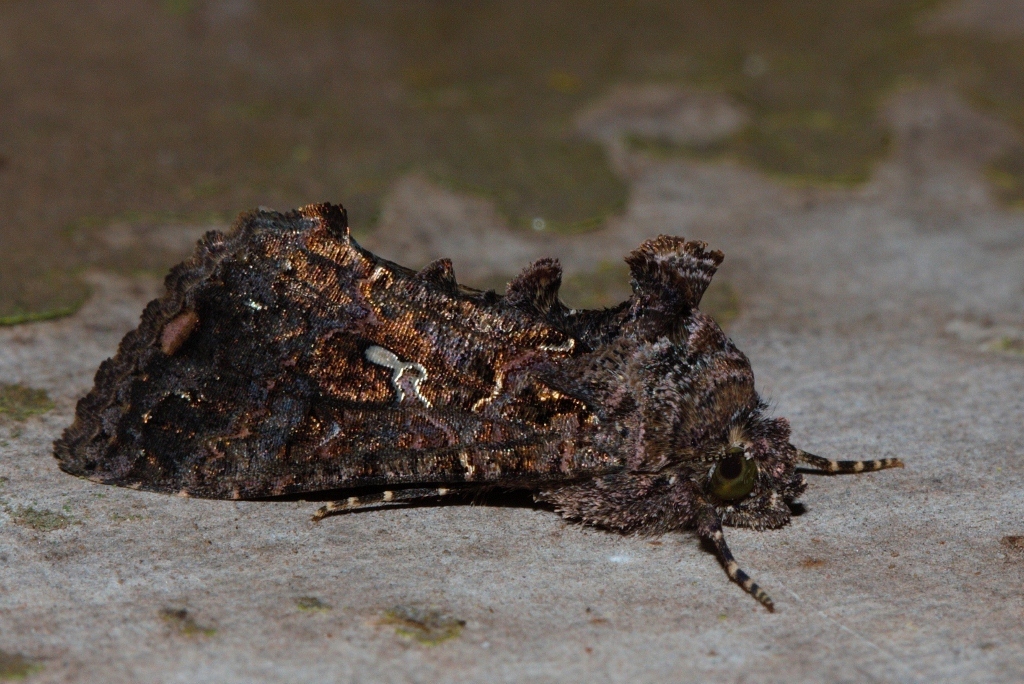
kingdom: Animalia
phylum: Arthropoda
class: Insecta
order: Lepidoptera
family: Noctuidae
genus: Ctenoplusia
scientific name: Ctenoplusia limbirena
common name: Scar bank gem
